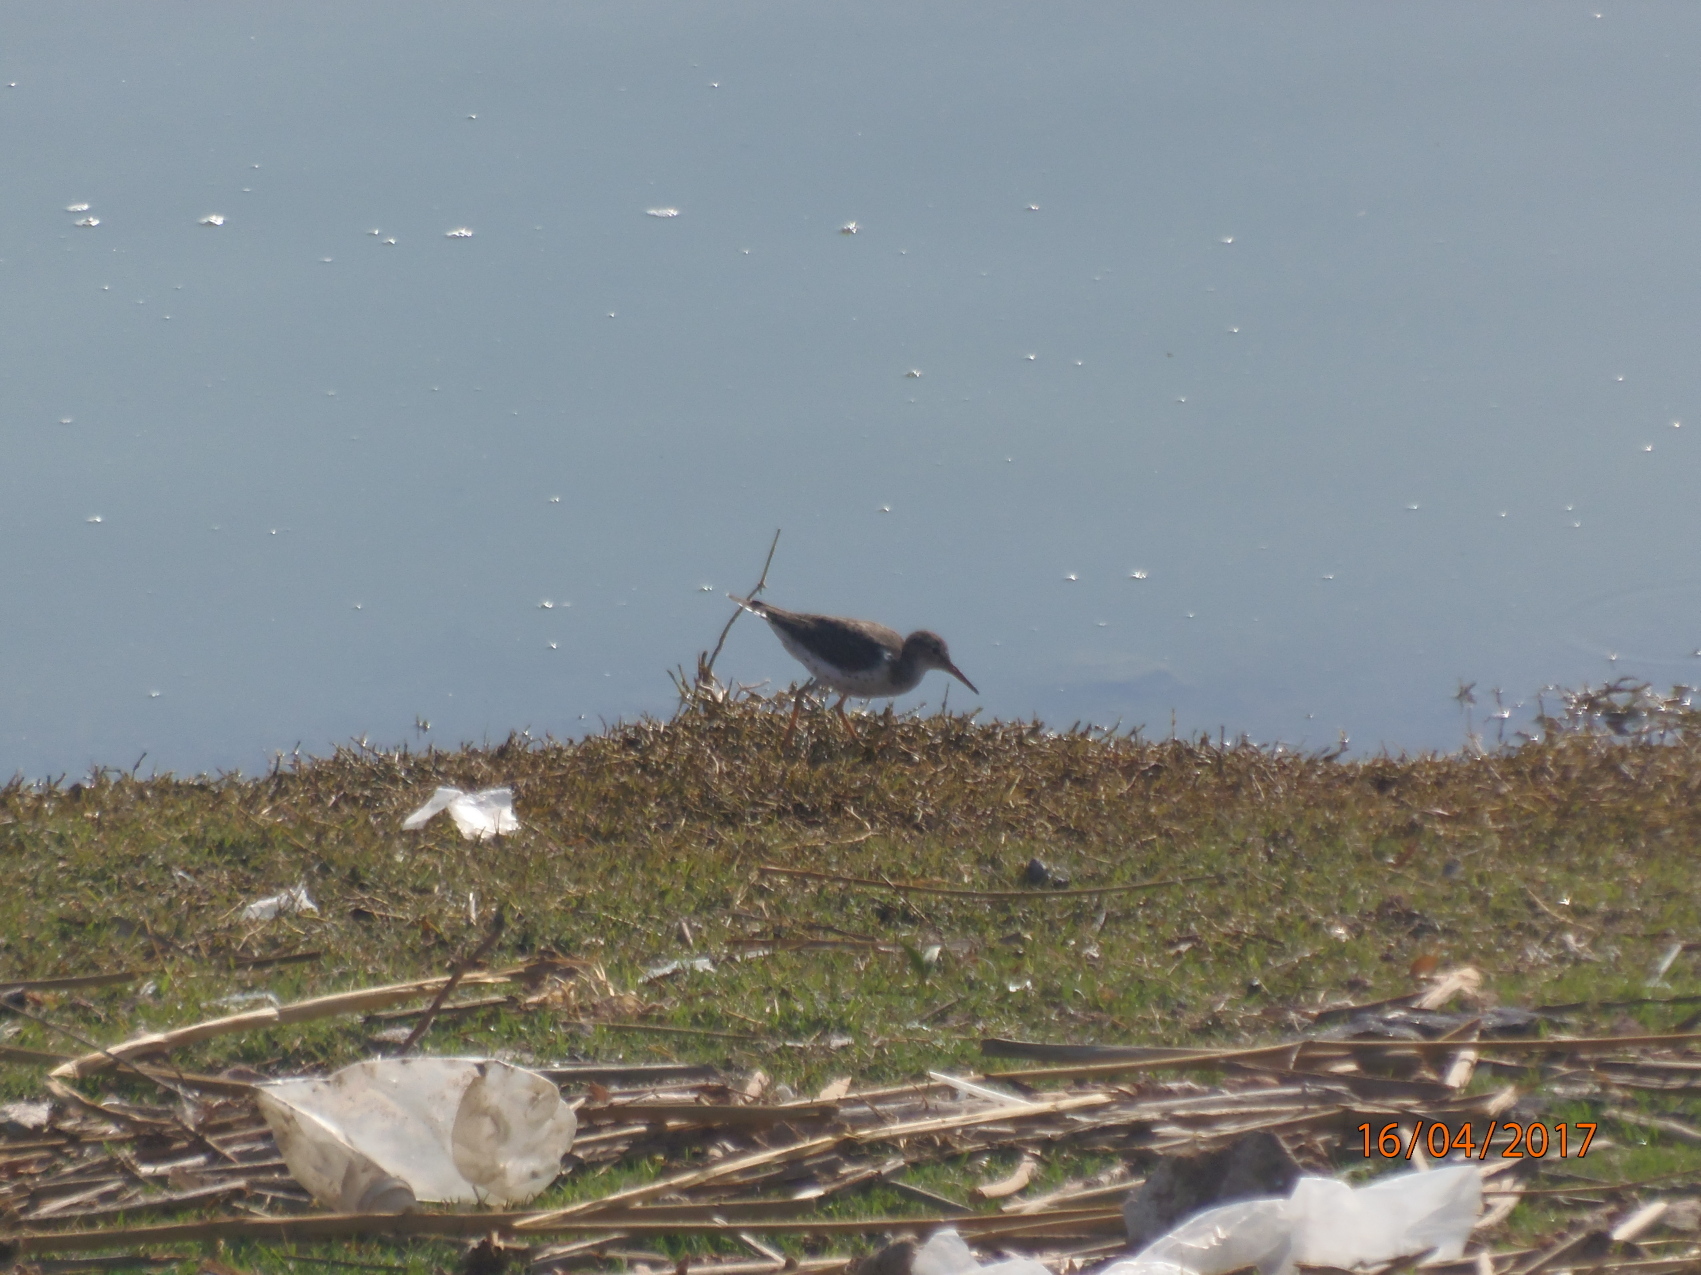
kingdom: Animalia
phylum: Chordata
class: Aves
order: Charadriiformes
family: Scolopacidae
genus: Actitis
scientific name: Actitis macularius
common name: Spotted sandpiper
